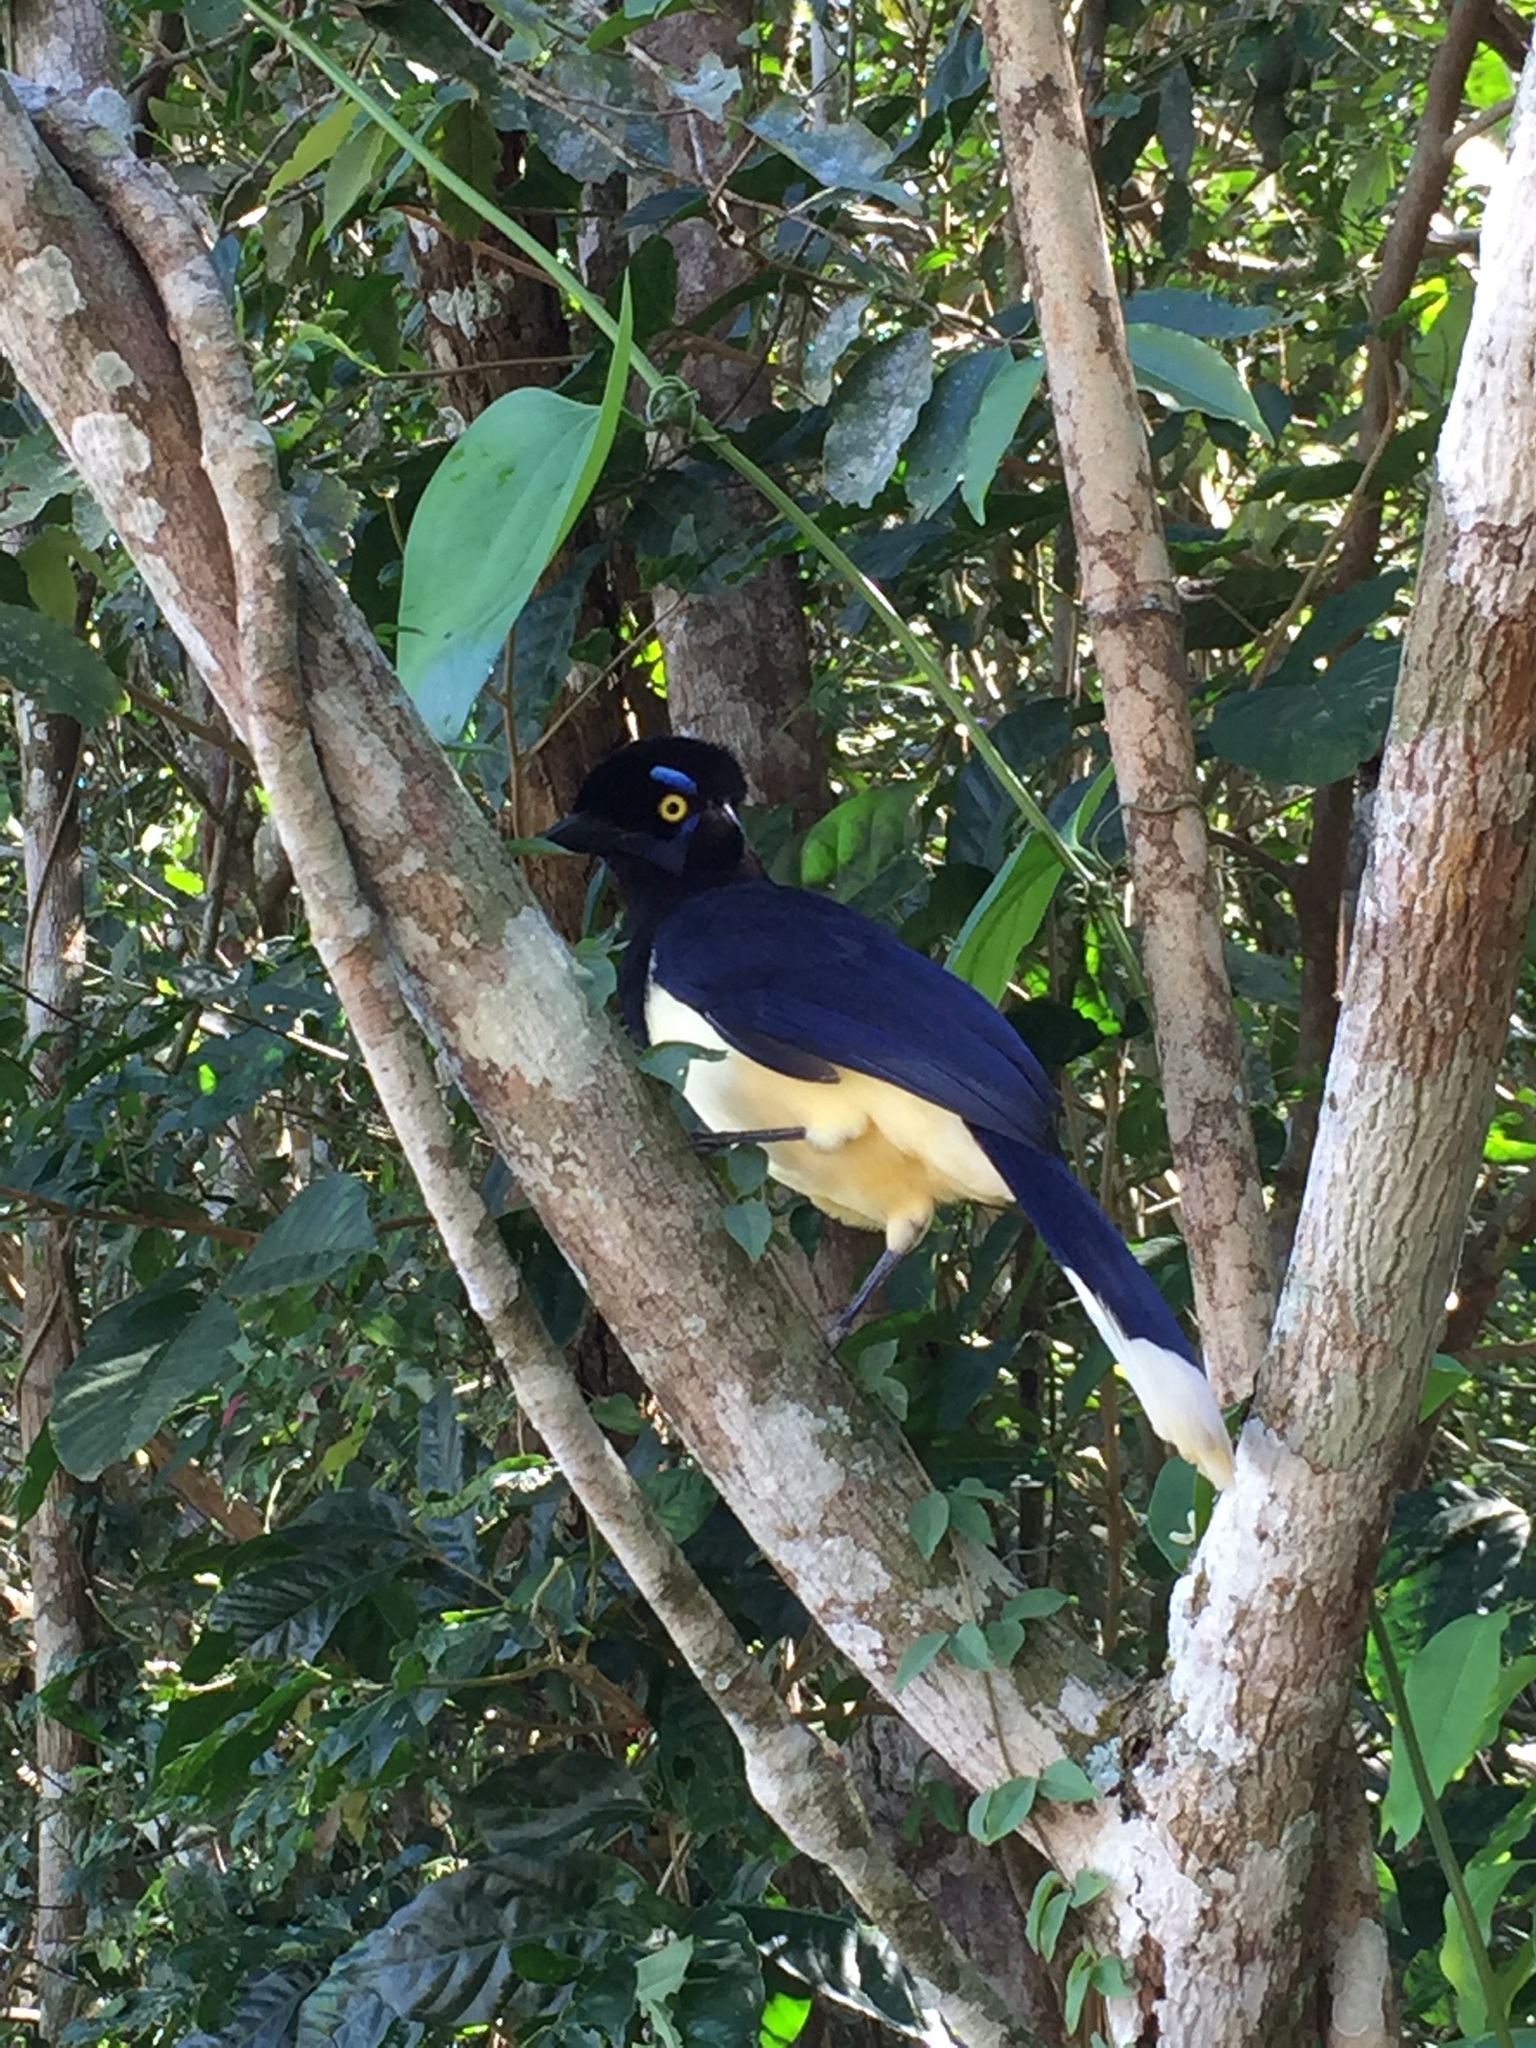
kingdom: Animalia
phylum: Chordata
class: Aves
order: Passeriformes
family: Corvidae
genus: Cyanocorax
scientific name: Cyanocorax chrysops
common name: Plush-crested jay
